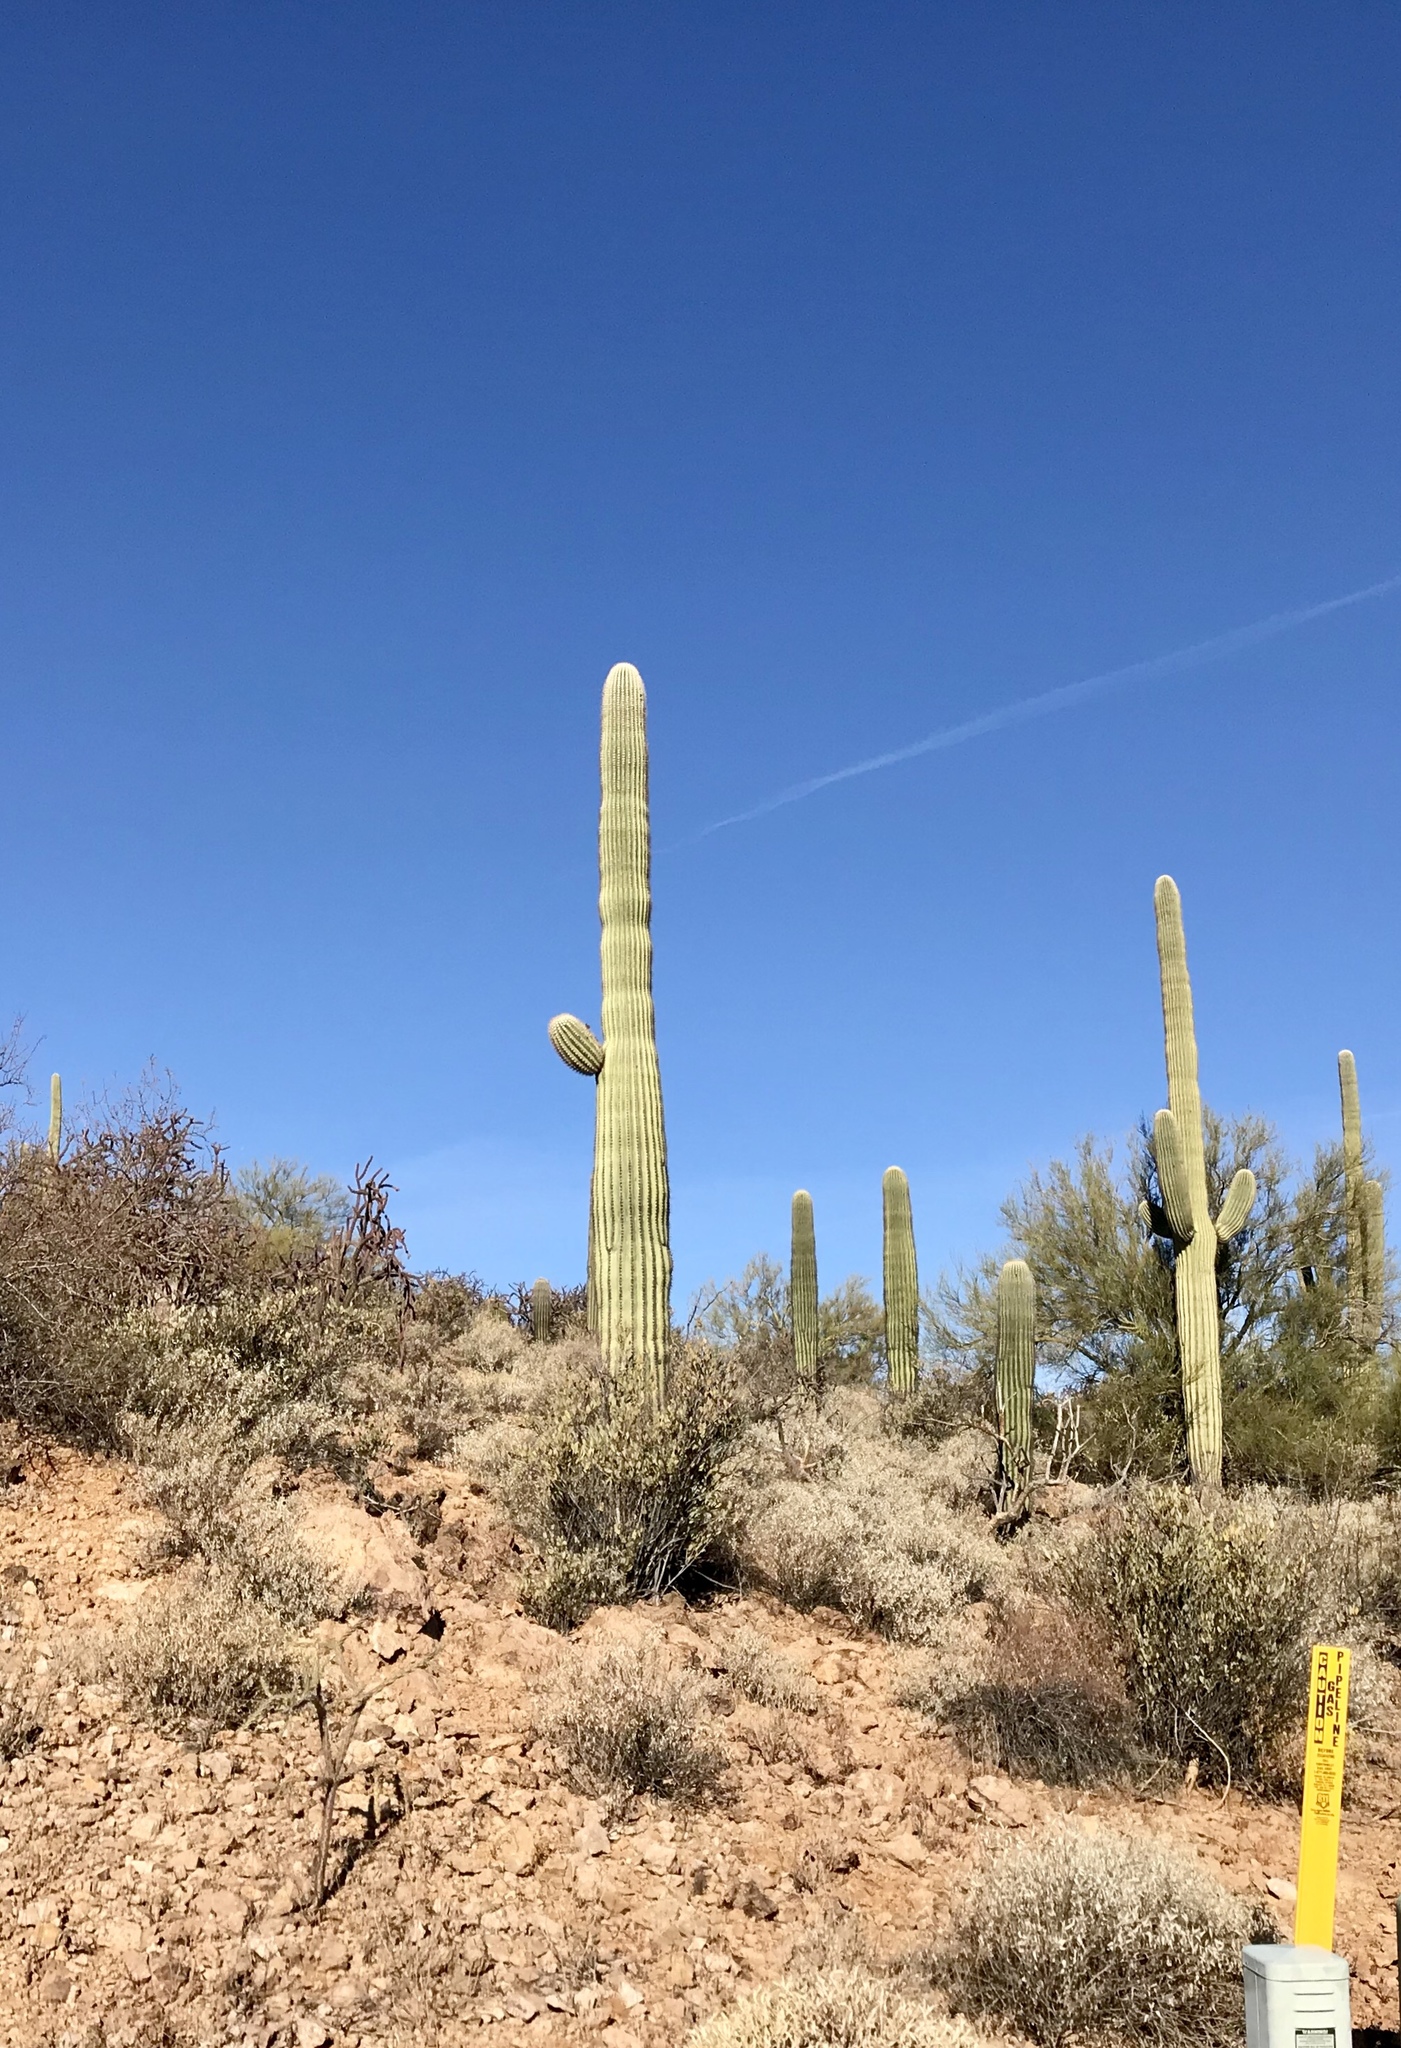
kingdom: Plantae
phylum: Tracheophyta
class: Magnoliopsida
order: Caryophyllales
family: Cactaceae
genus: Carnegiea
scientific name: Carnegiea gigantea
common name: Saguaro
